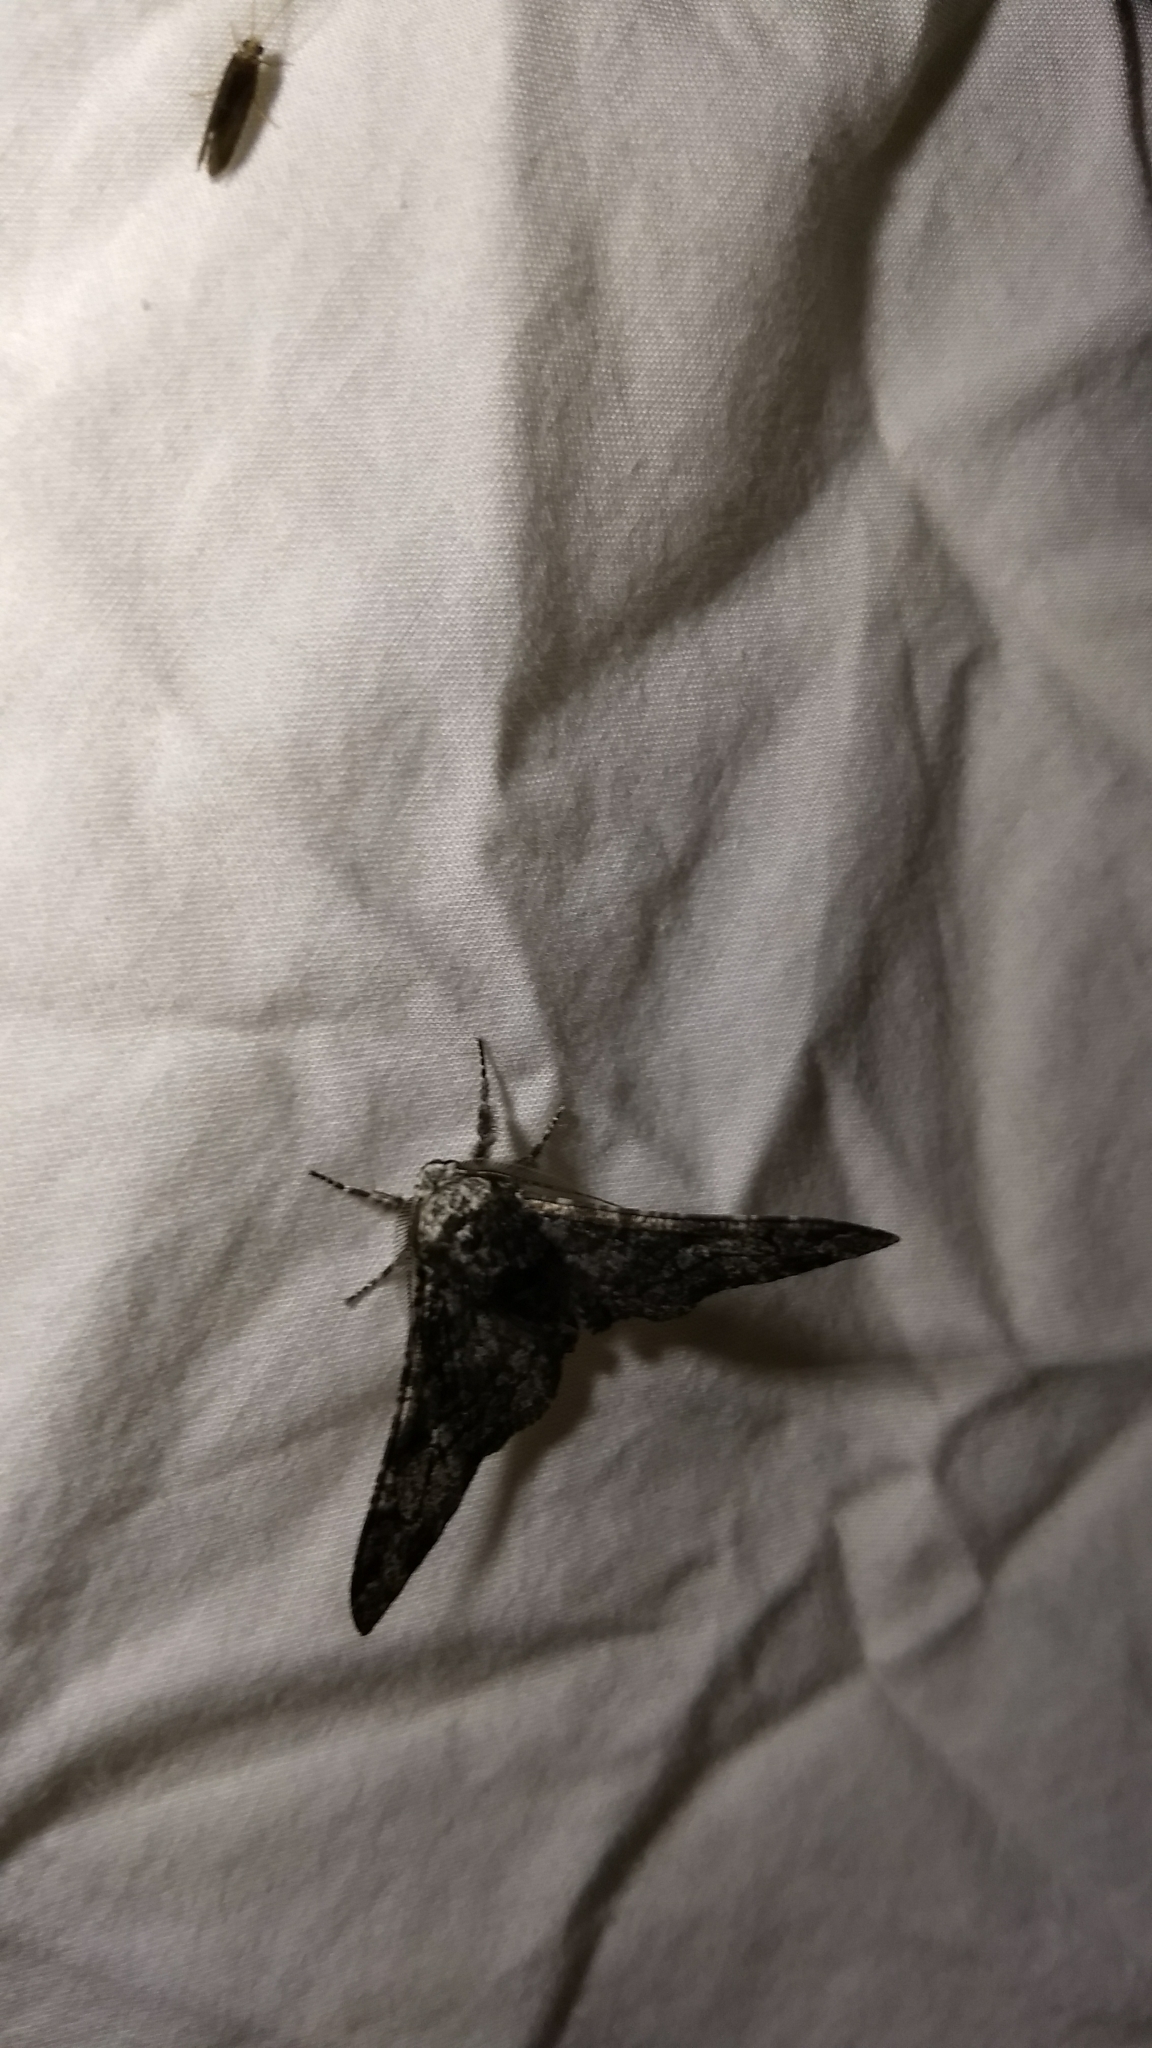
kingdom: Animalia
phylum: Arthropoda
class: Insecta
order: Lepidoptera
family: Geometridae
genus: Biston
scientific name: Biston betularia
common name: Peppered moth
